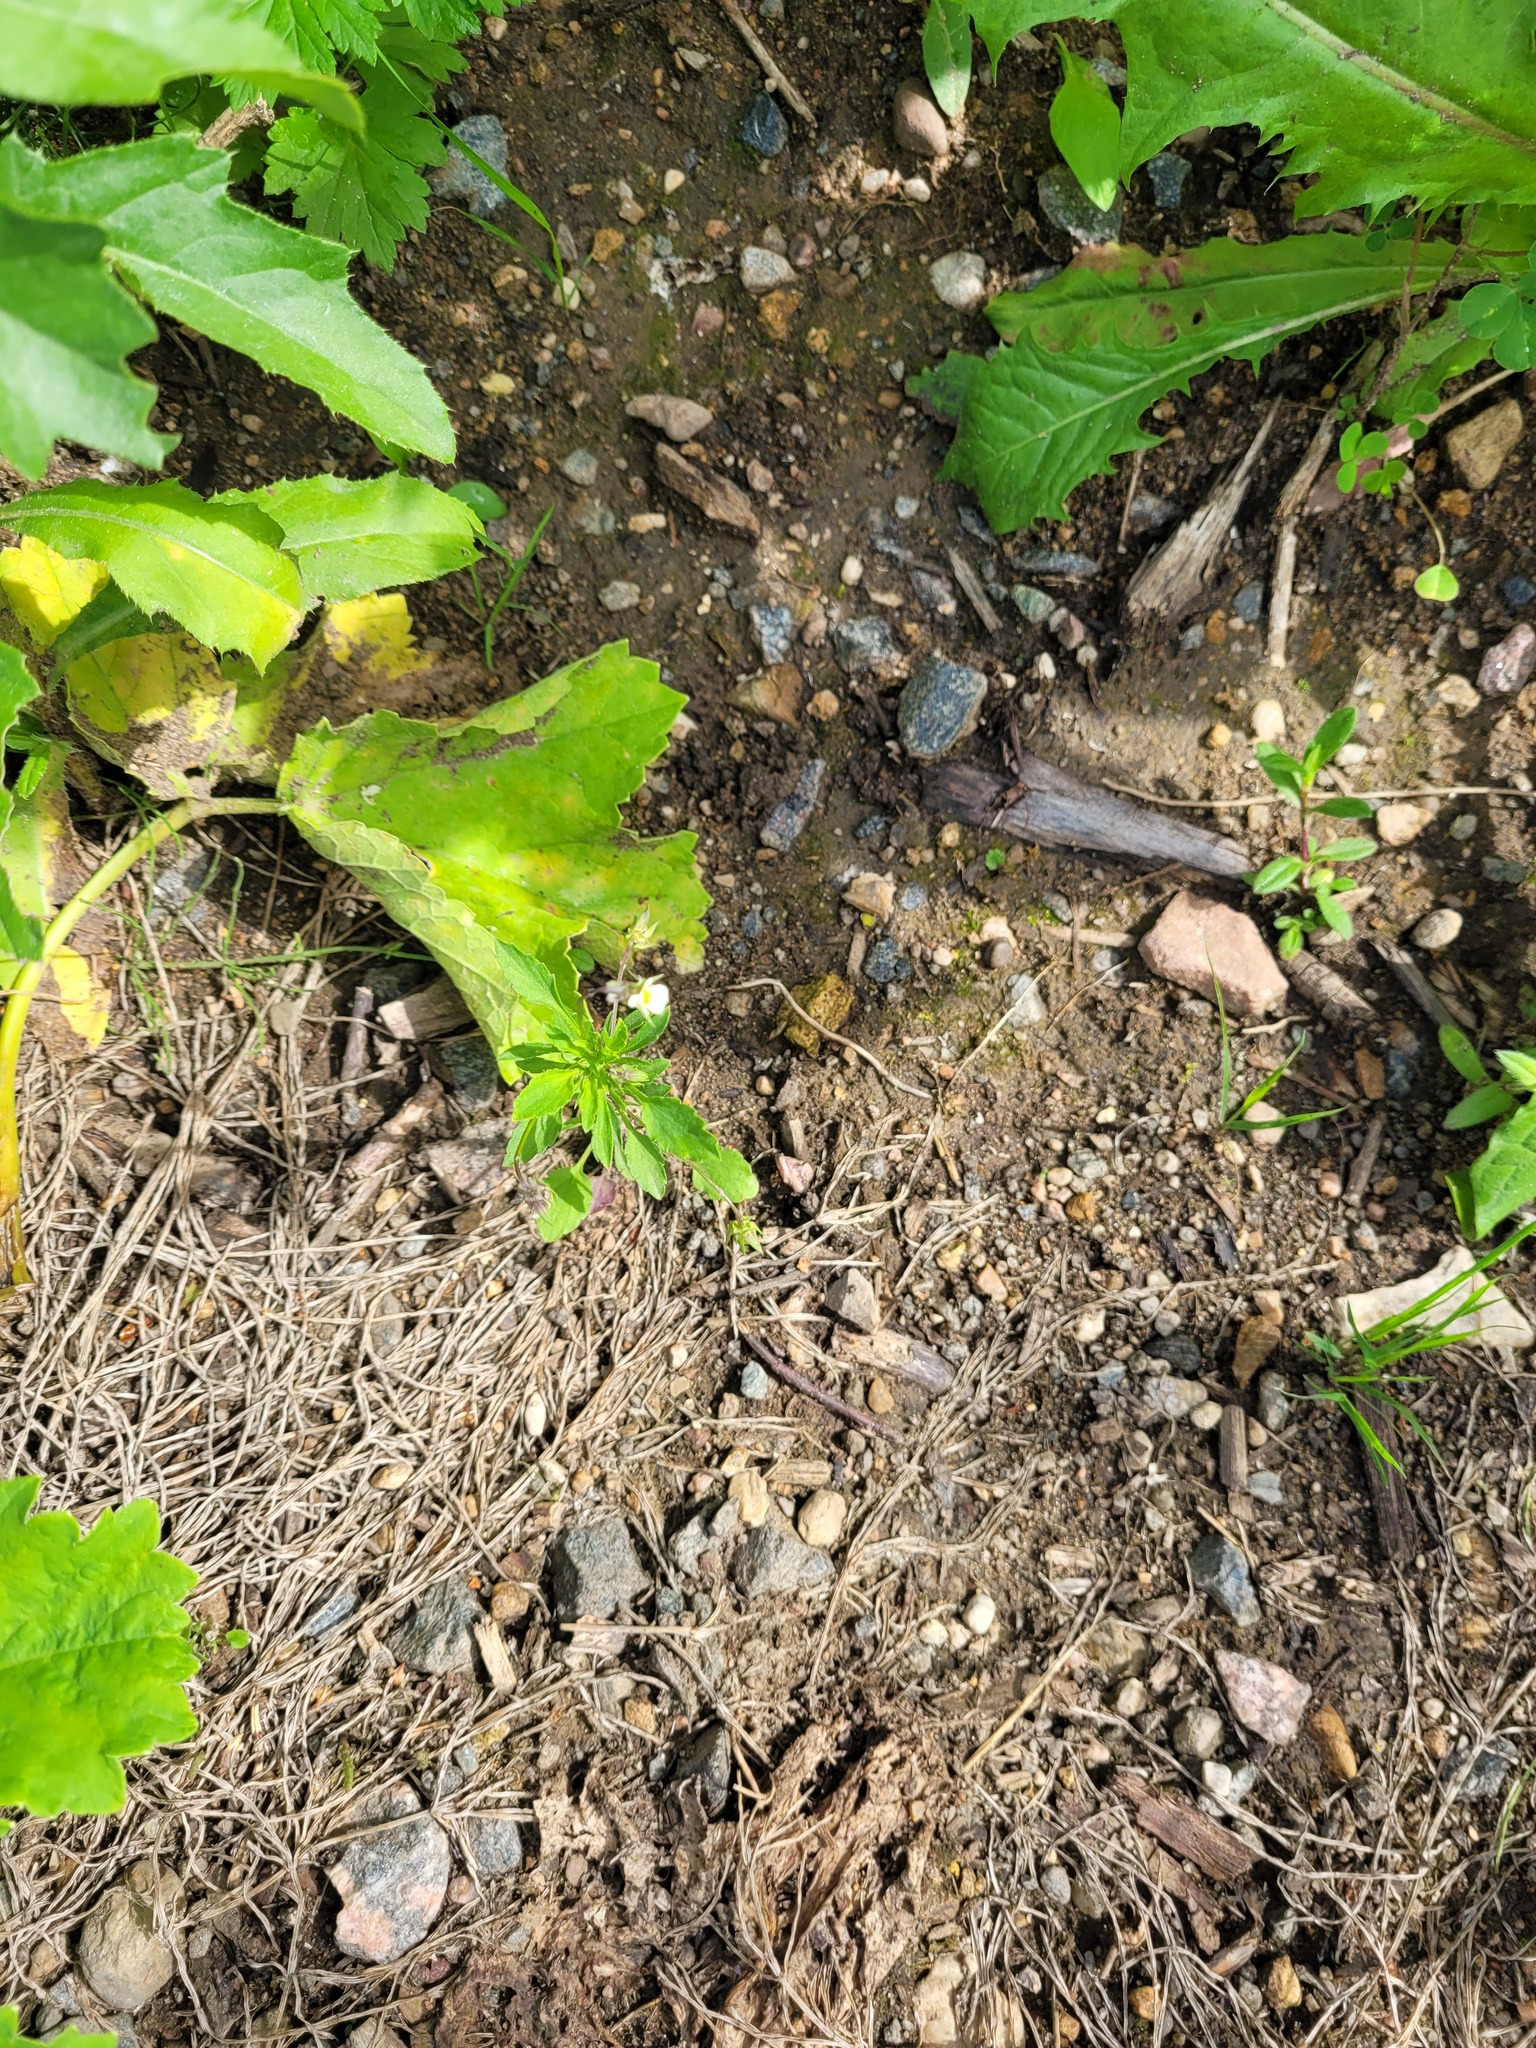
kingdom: Plantae
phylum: Tracheophyta
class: Magnoliopsida
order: Malpighiales
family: Violaceae
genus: Viola
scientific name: Viola arvensis
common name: Field pansy
